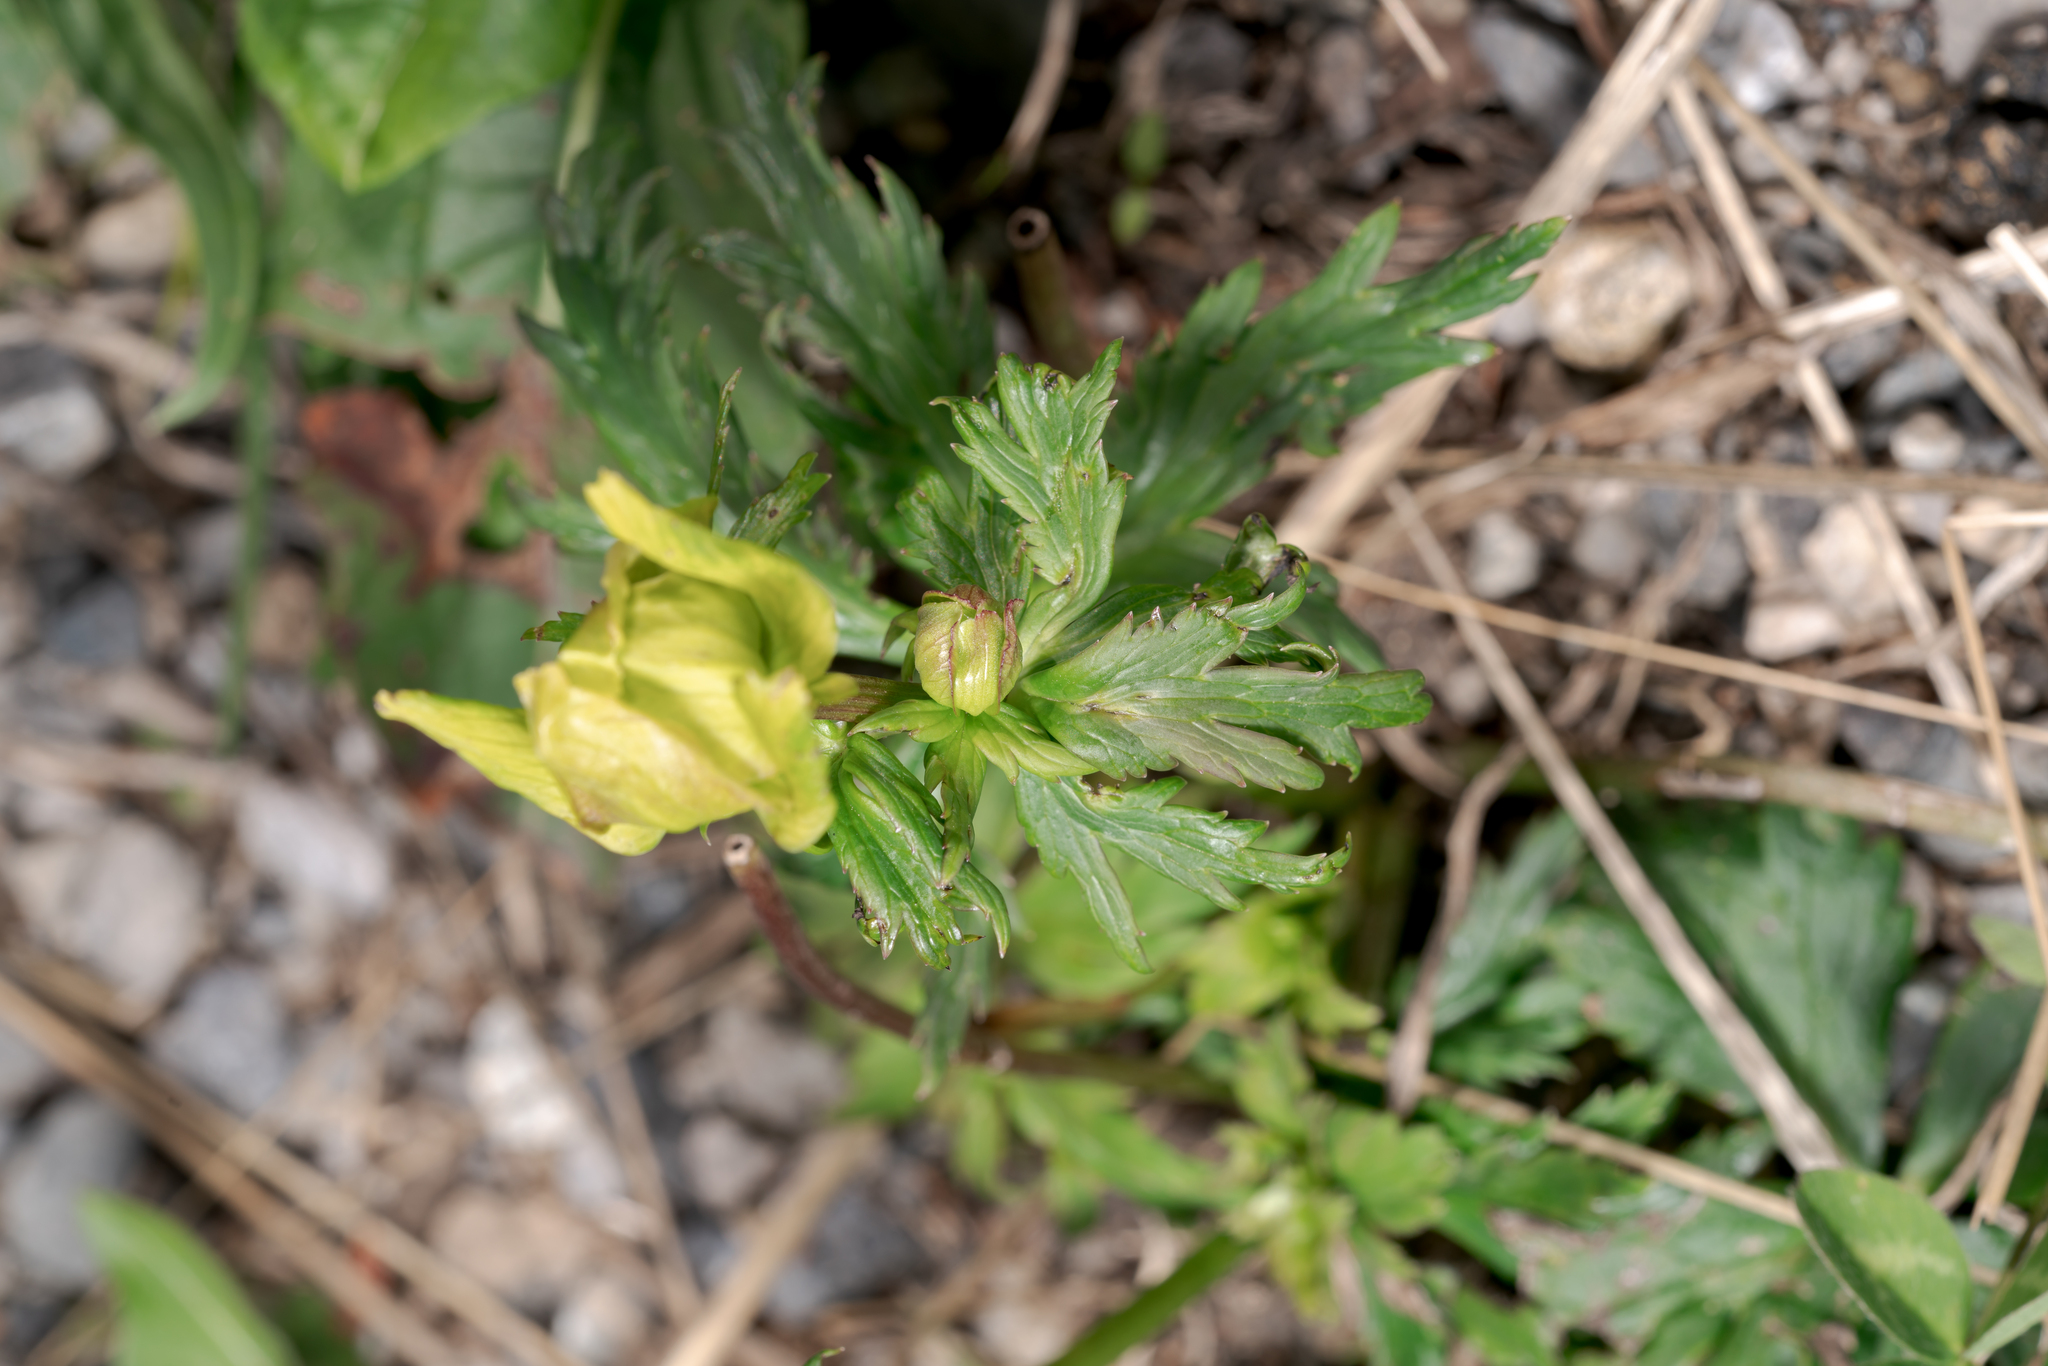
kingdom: Plantae
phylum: Tracheophyta
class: Magnoliopsida
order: Ranunculales
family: Ranunculaceae
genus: Trollius
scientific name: Trollius europaeus
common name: European globeflower
